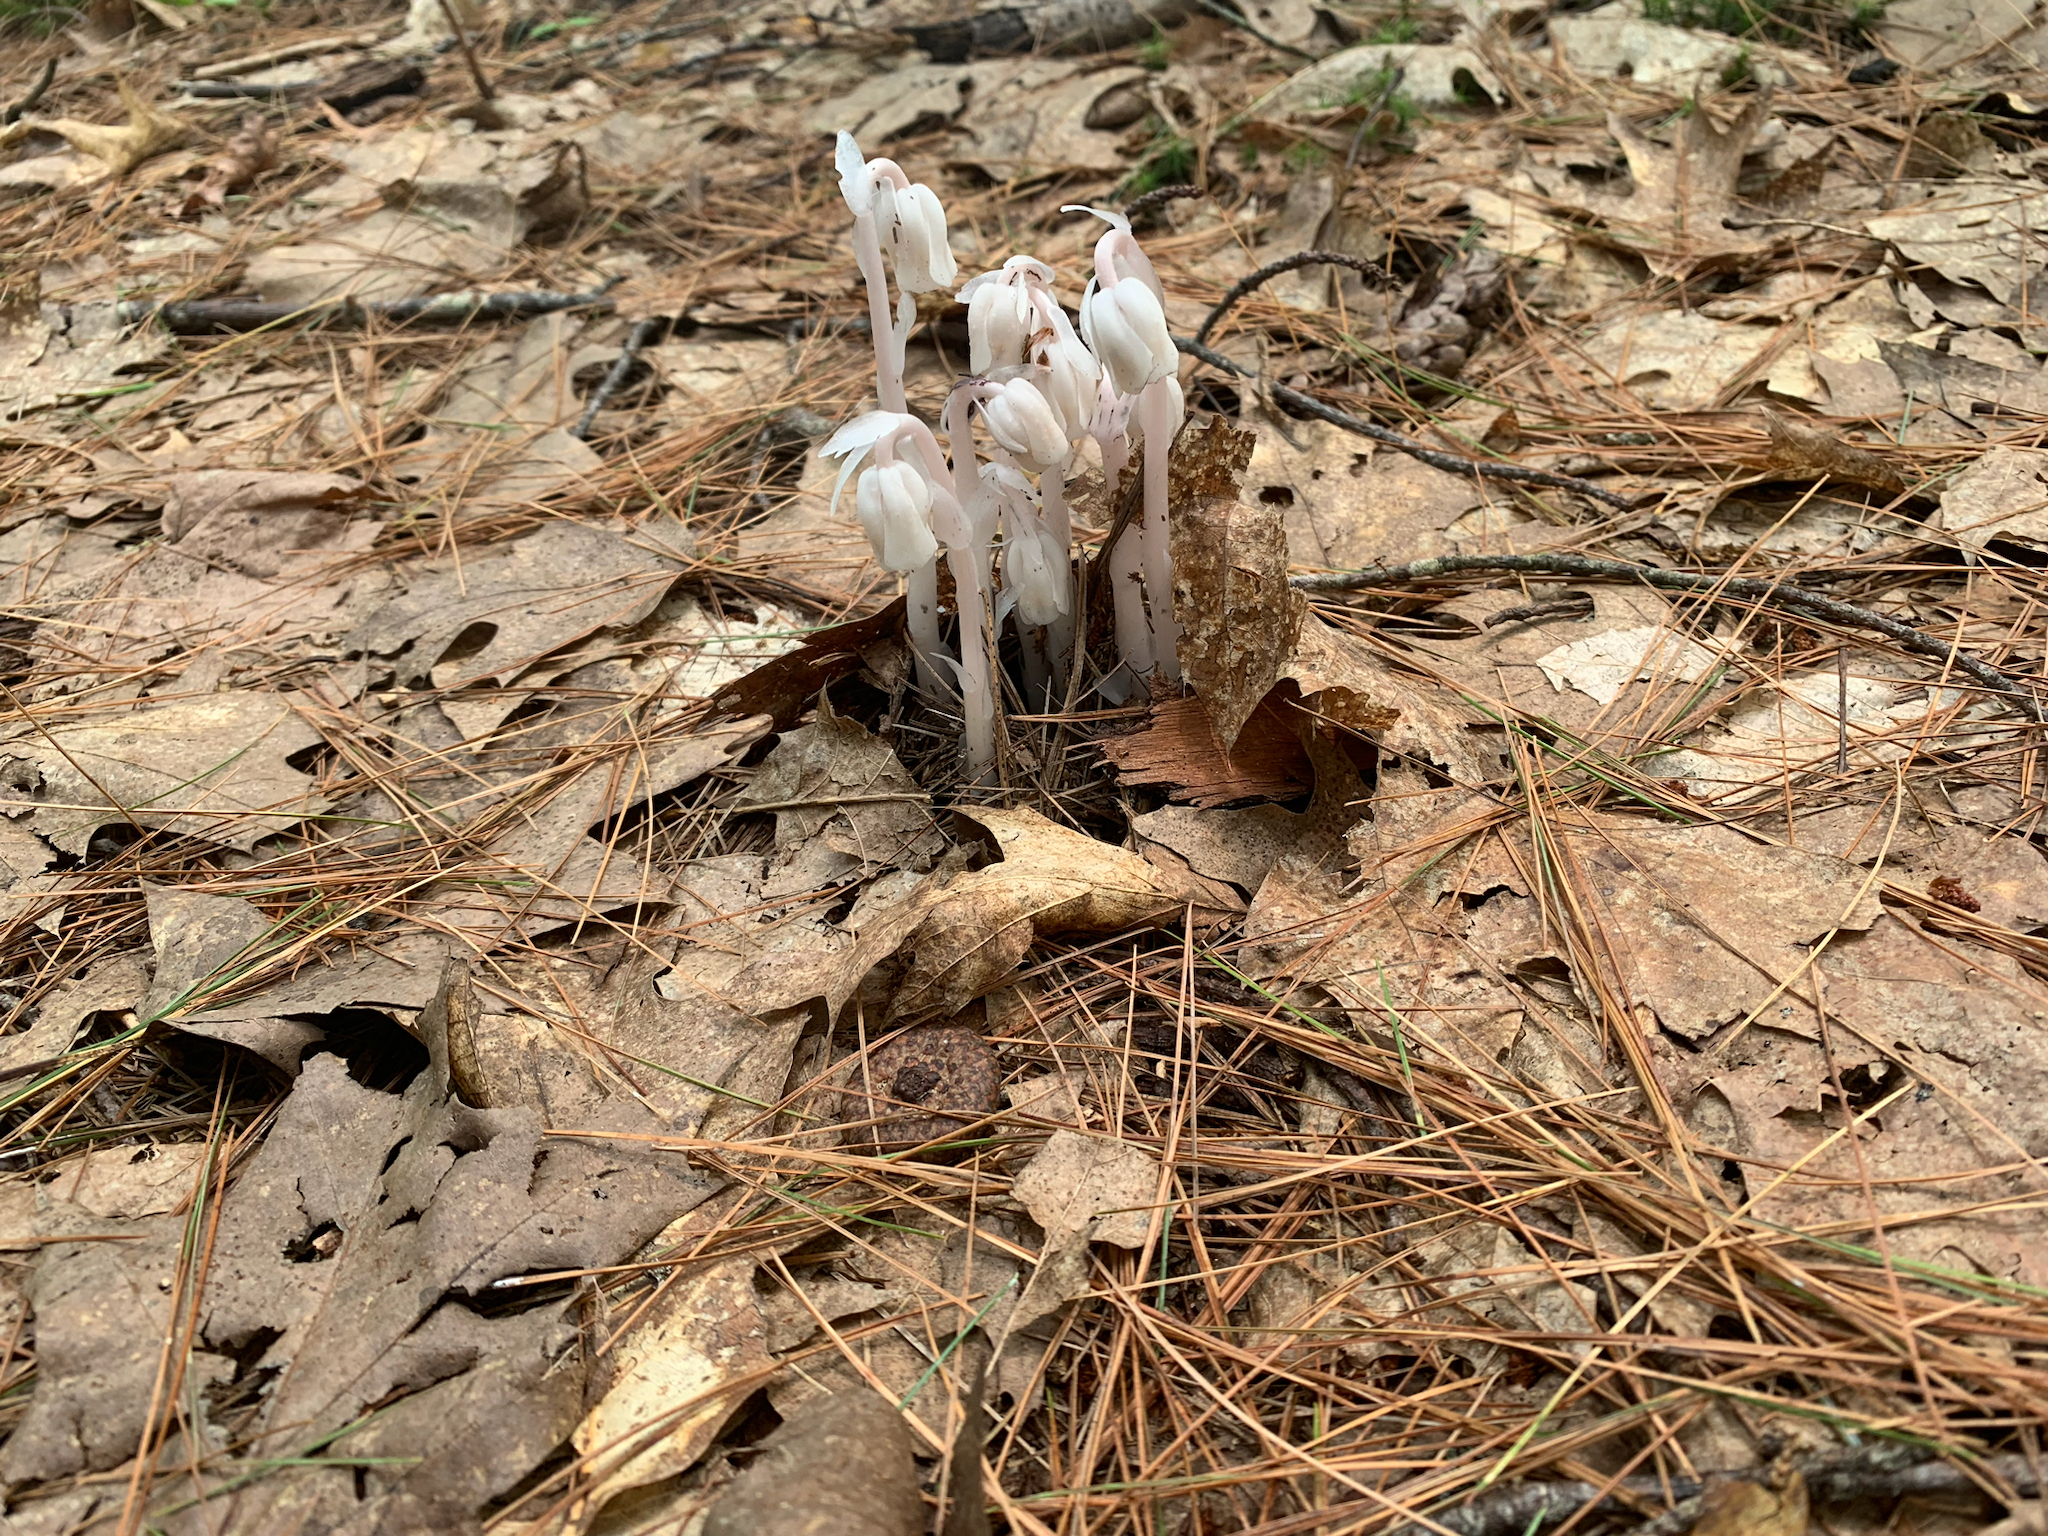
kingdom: Plantae
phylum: Tracheophyta
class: Magnoliopsida
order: Ericales
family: Ericaceae
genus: Monotropa
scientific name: Monotropa uniflora
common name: Convulsion root
